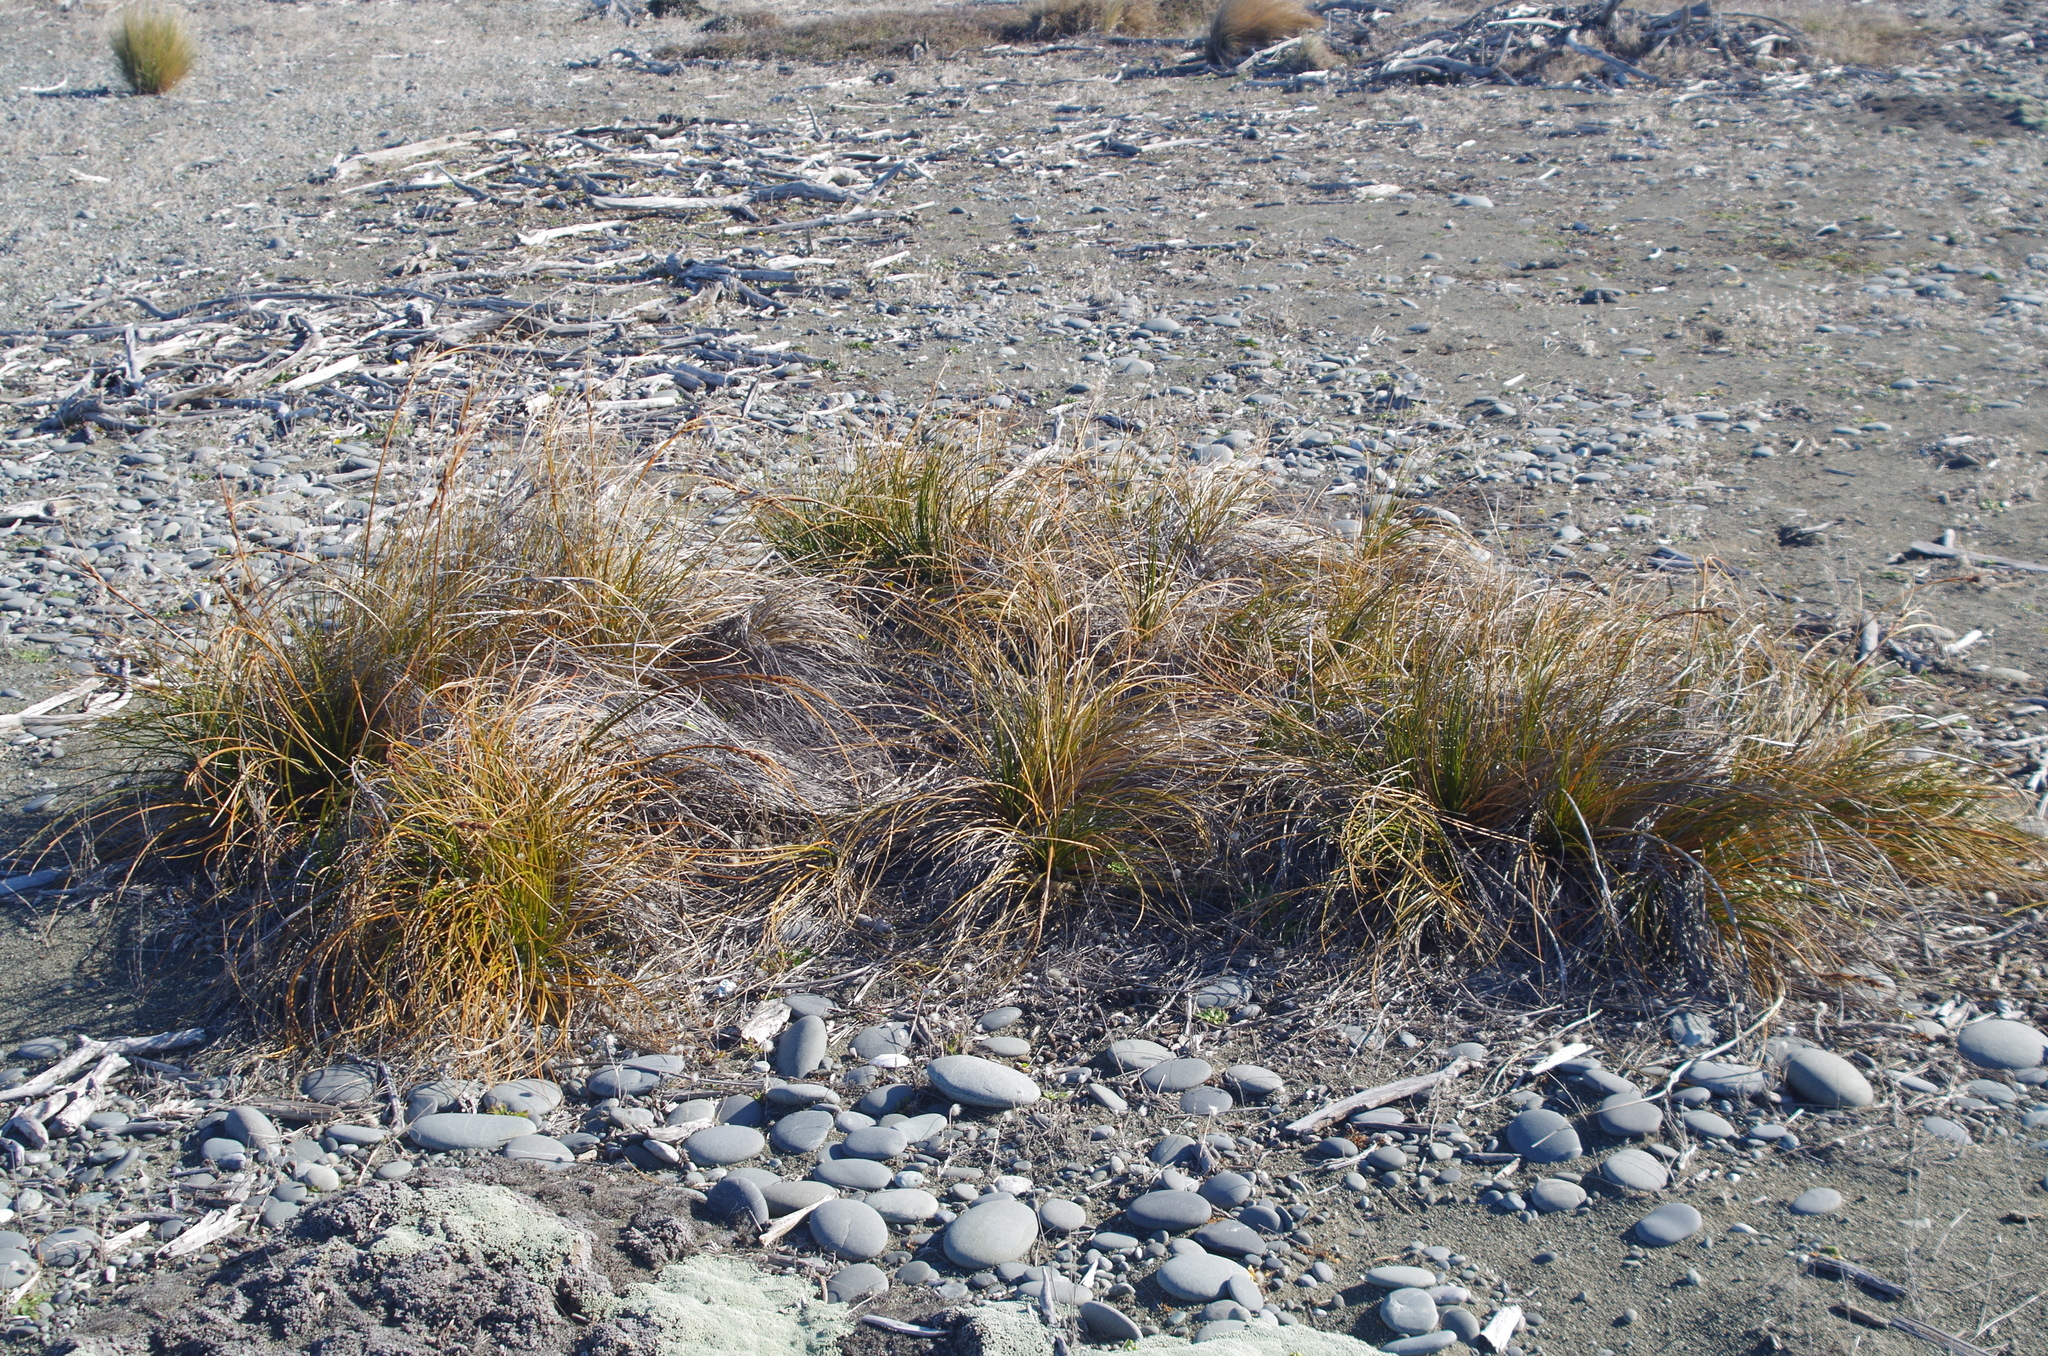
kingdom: Plantae
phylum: Tracheophyta
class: Liliopsida
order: Poales
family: Cyperaceae
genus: Ficinia
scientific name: Ficinia spiralis
